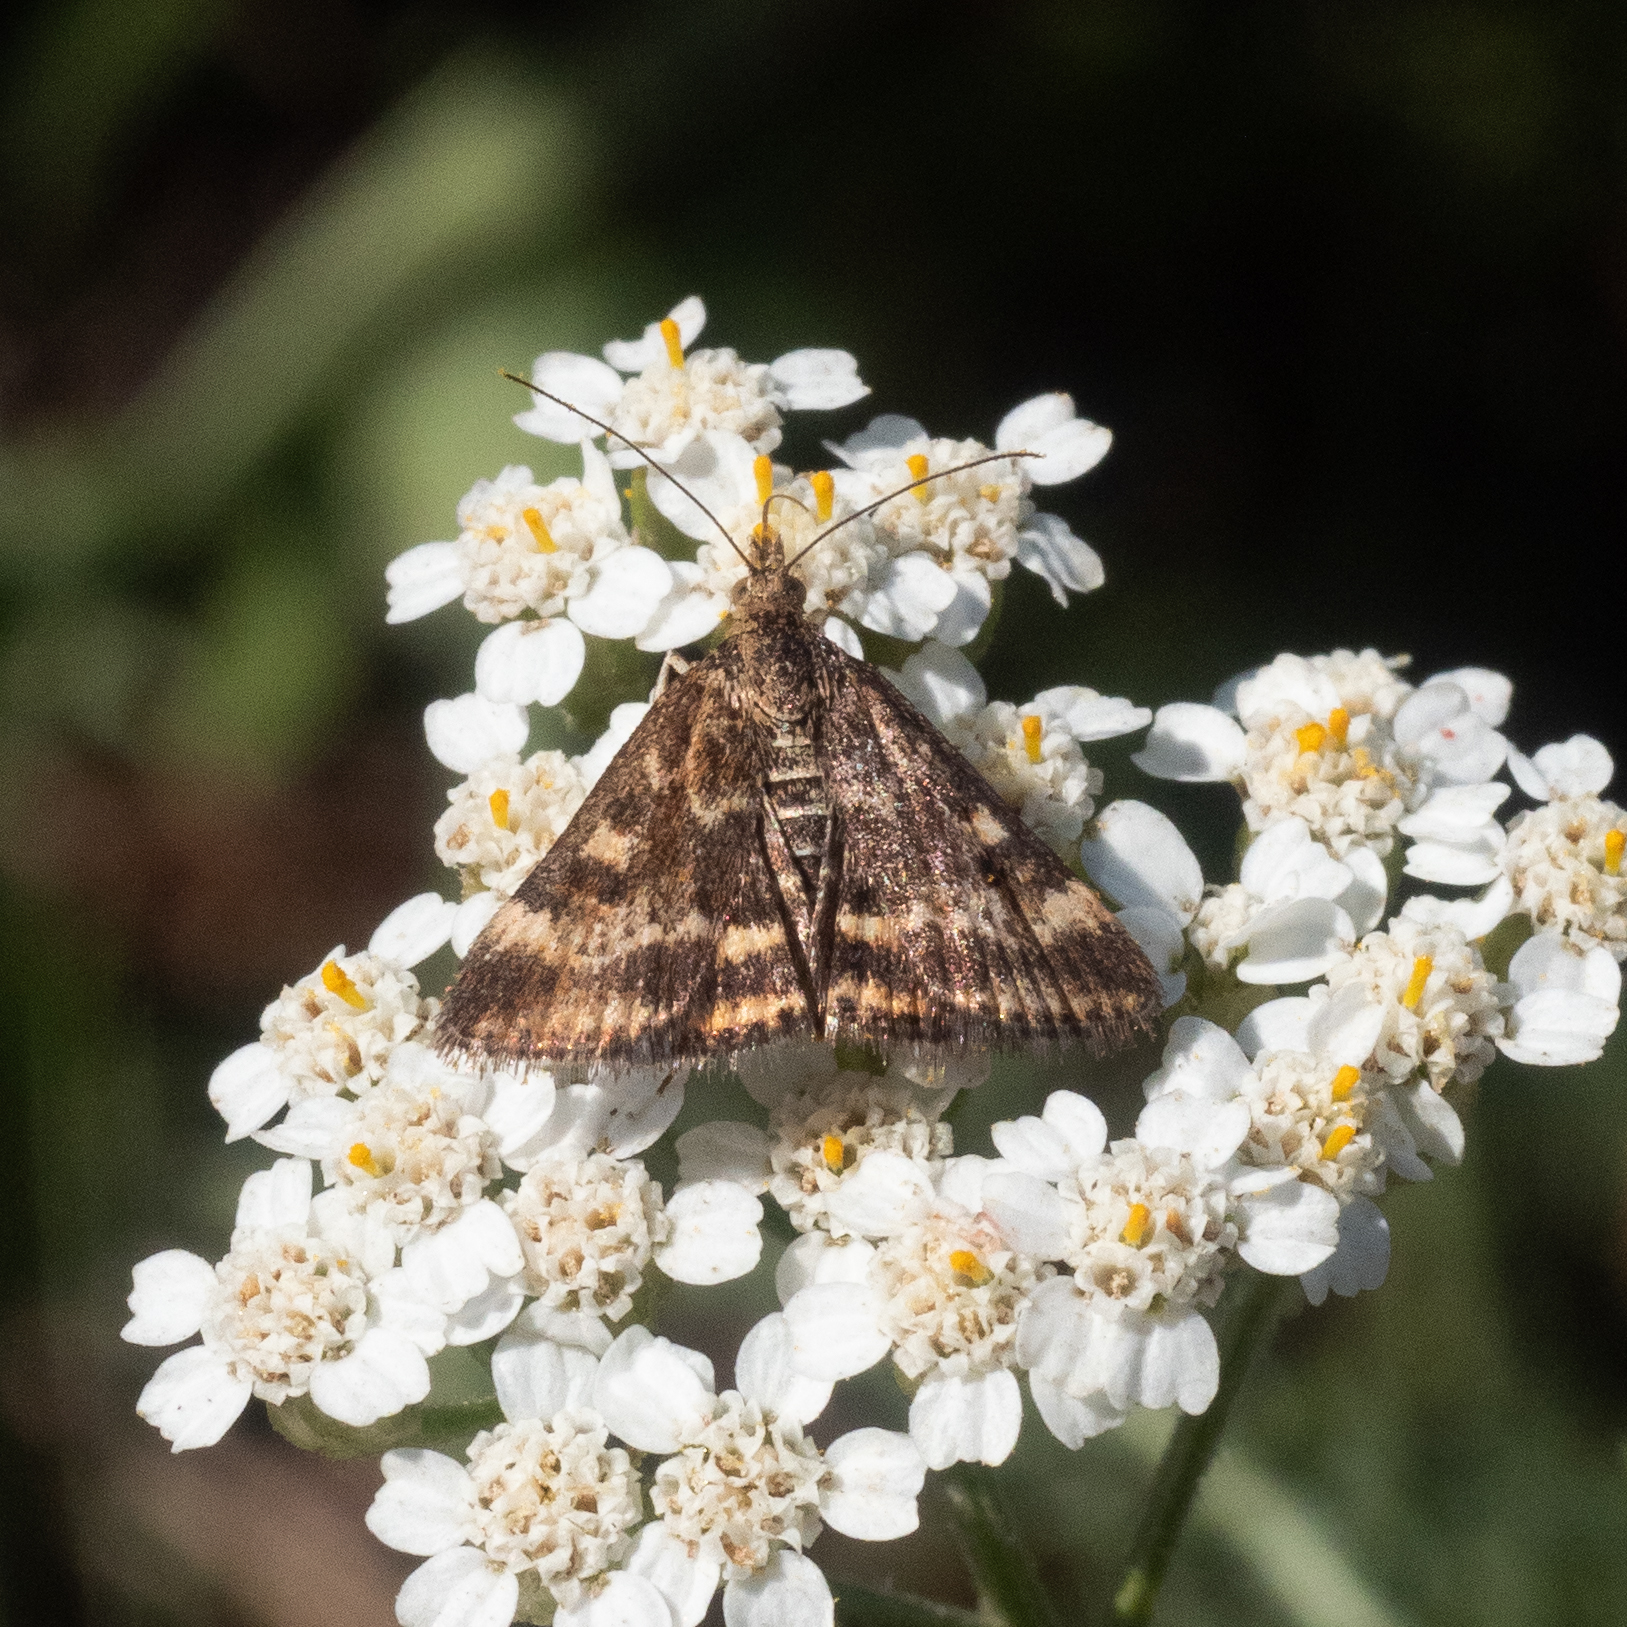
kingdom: Animalia
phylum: Arthropoda
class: Insecta
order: Lepidoptera
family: Crambidae
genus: Pyrausta
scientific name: Pyrausta despicata
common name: Straw-barred pearl
